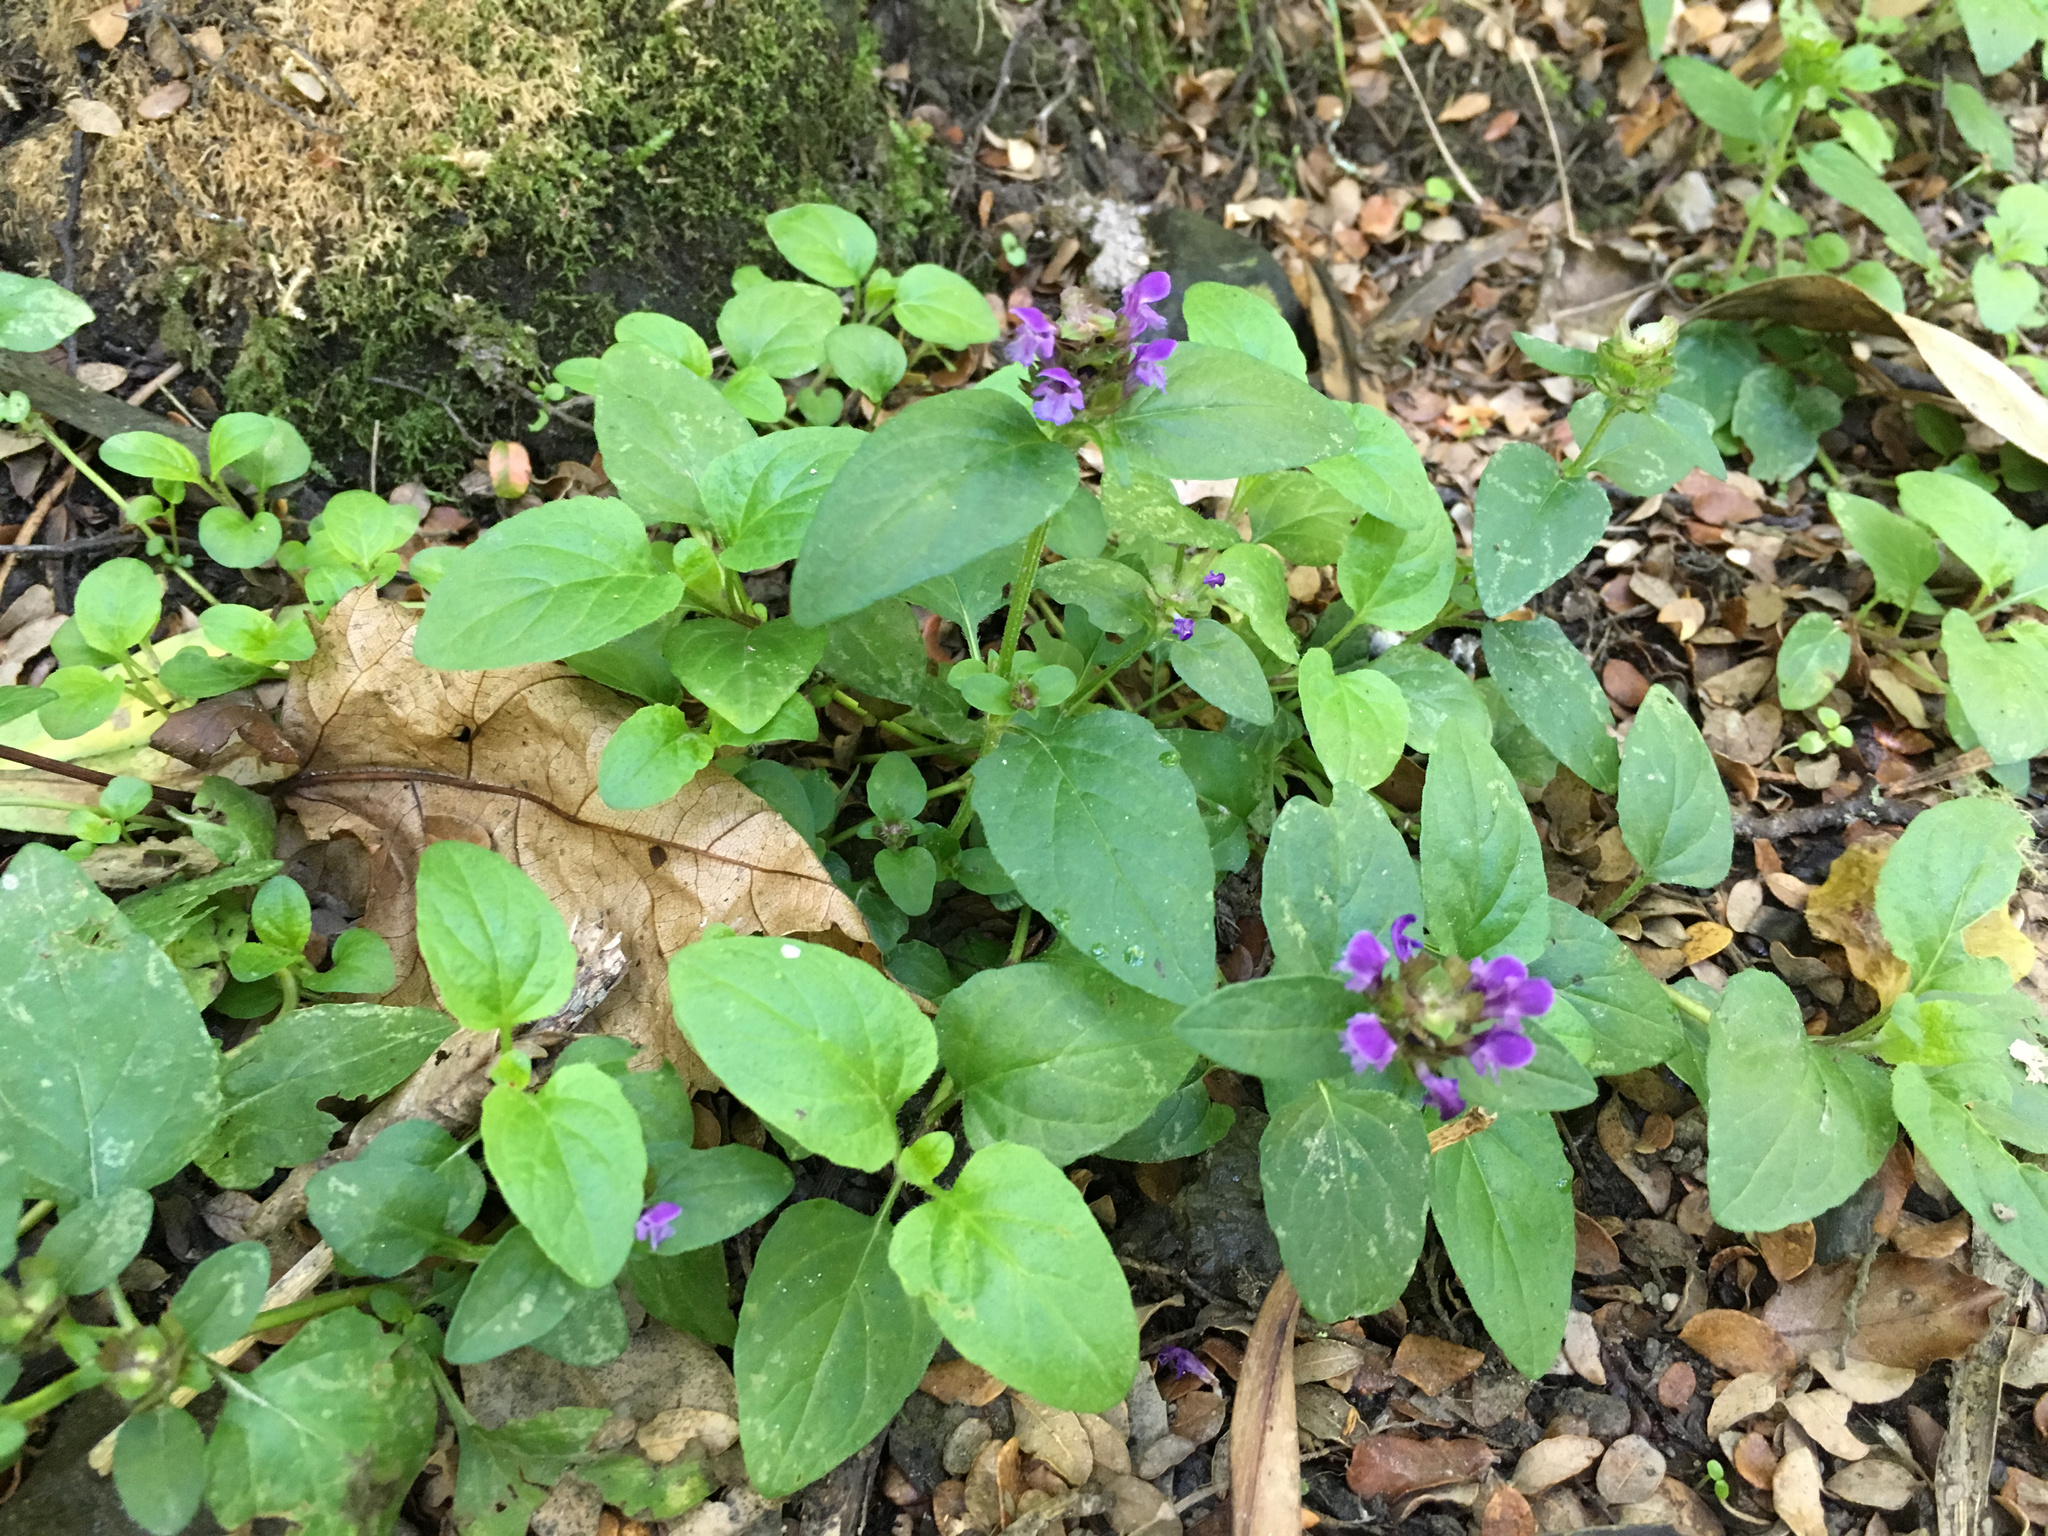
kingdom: Plantae
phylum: Tracheophyta
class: Magnoliopsida
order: Lamiales
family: Lamiaceae
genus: Prunella
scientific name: Prunella vulgaris
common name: Heal-all
